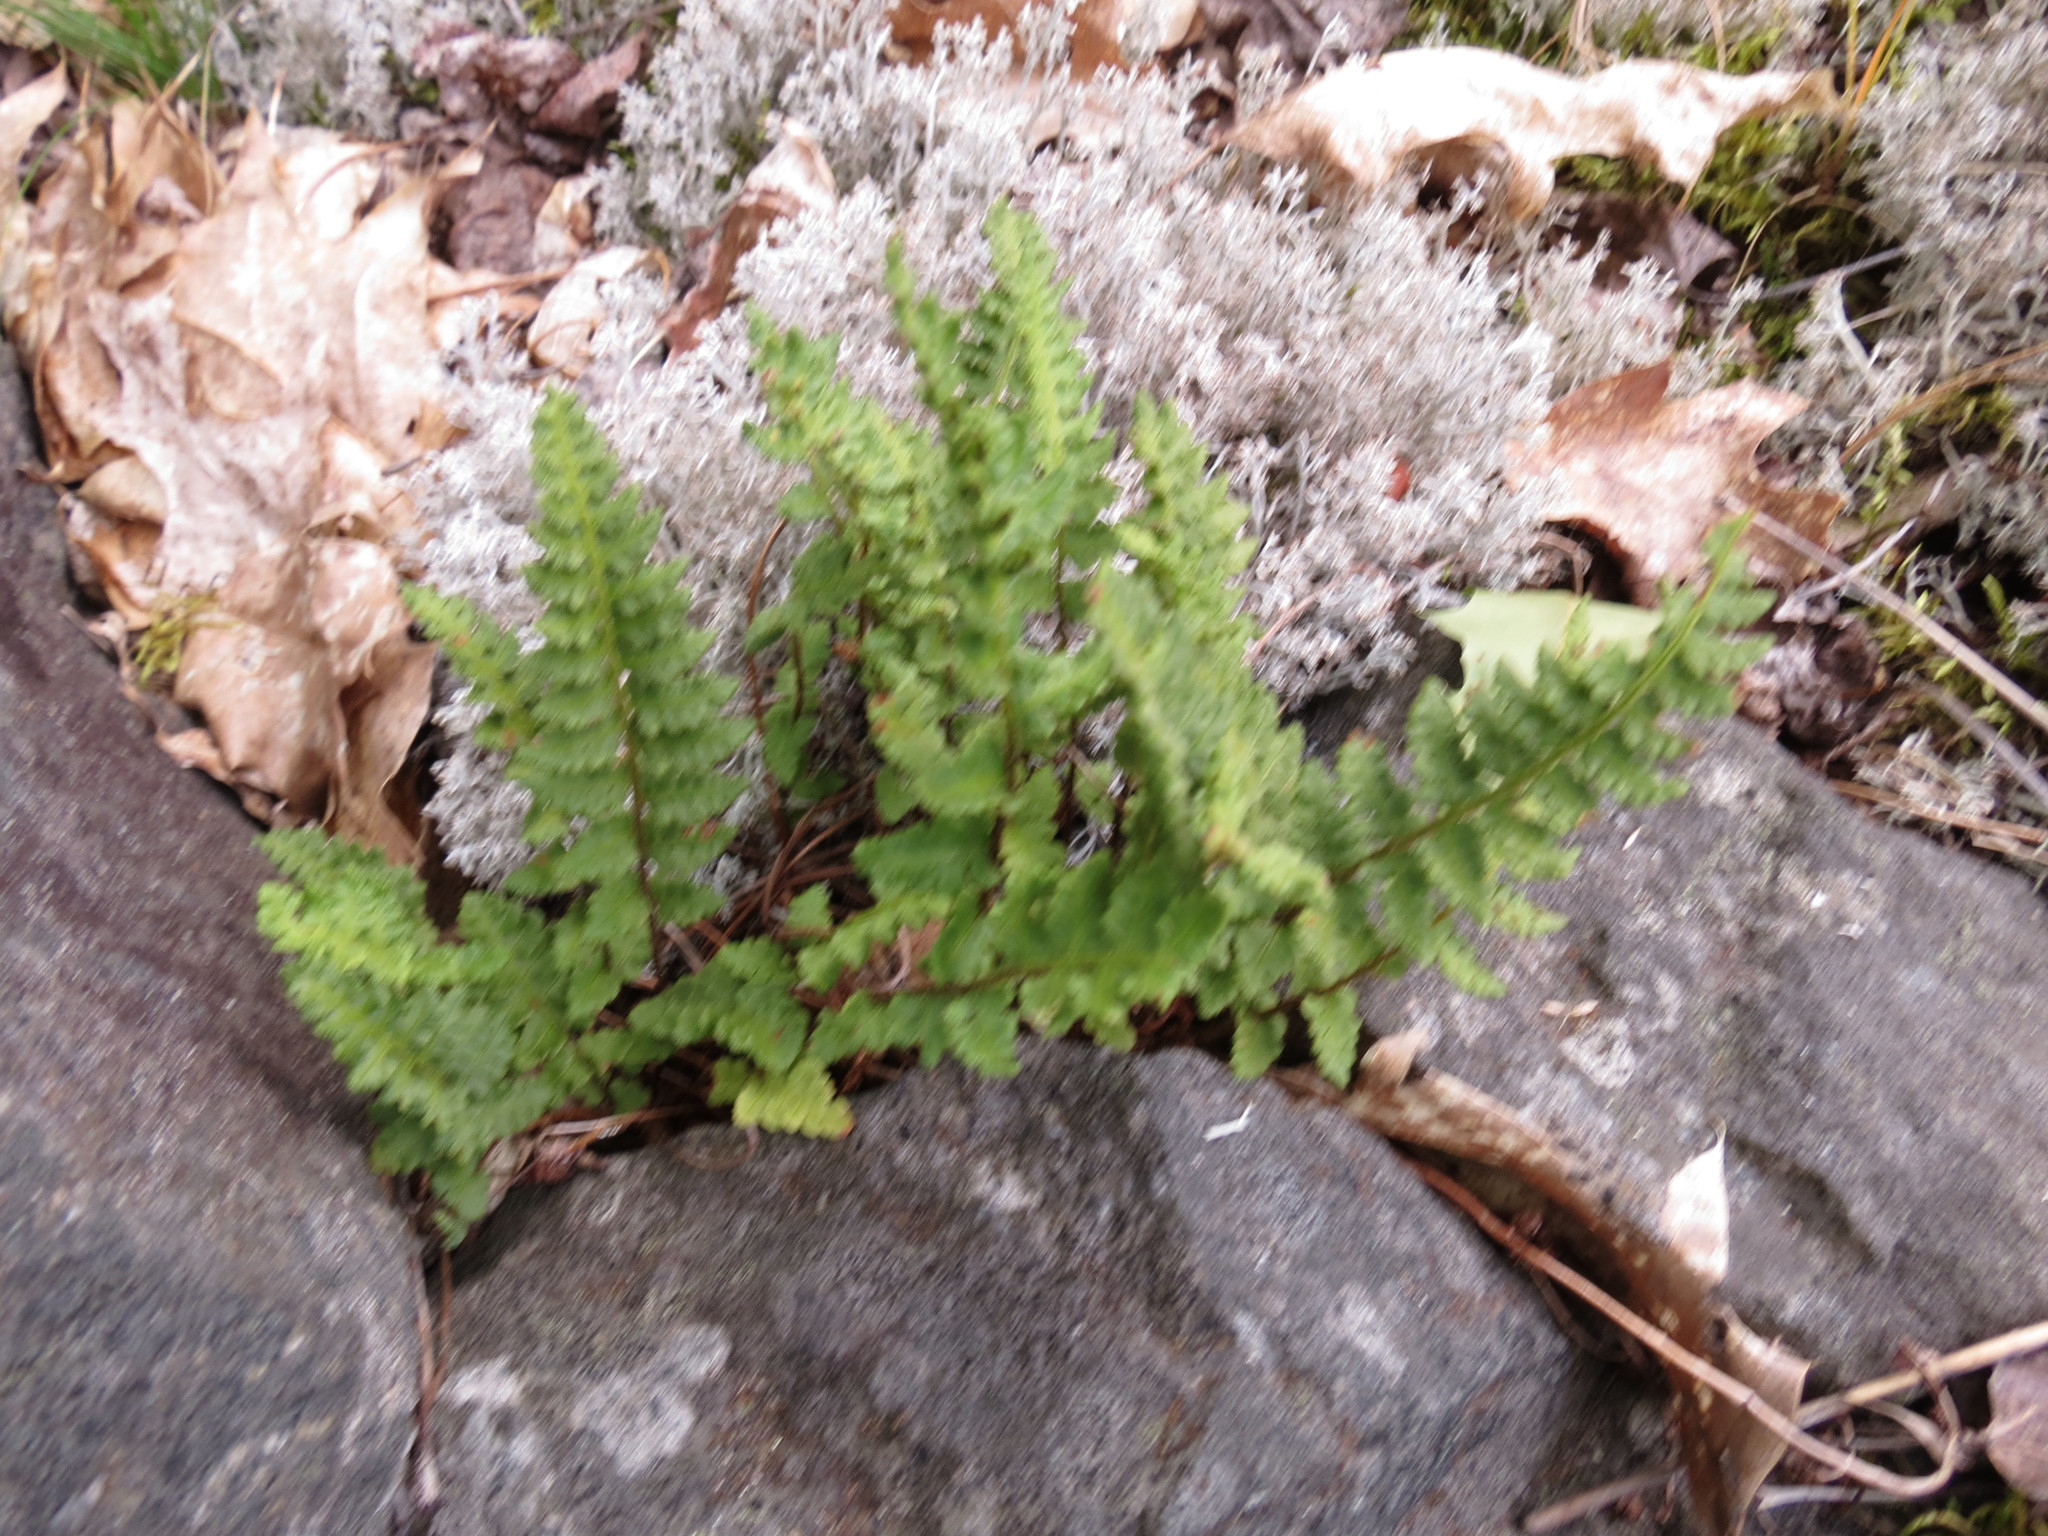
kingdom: Plantae
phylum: Tracheophyta
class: Polypodiopsida
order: Polypodiales
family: Woodsiaceae
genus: Woodsia
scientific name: Woodsia ilvensis
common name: Fragrant woodsia
